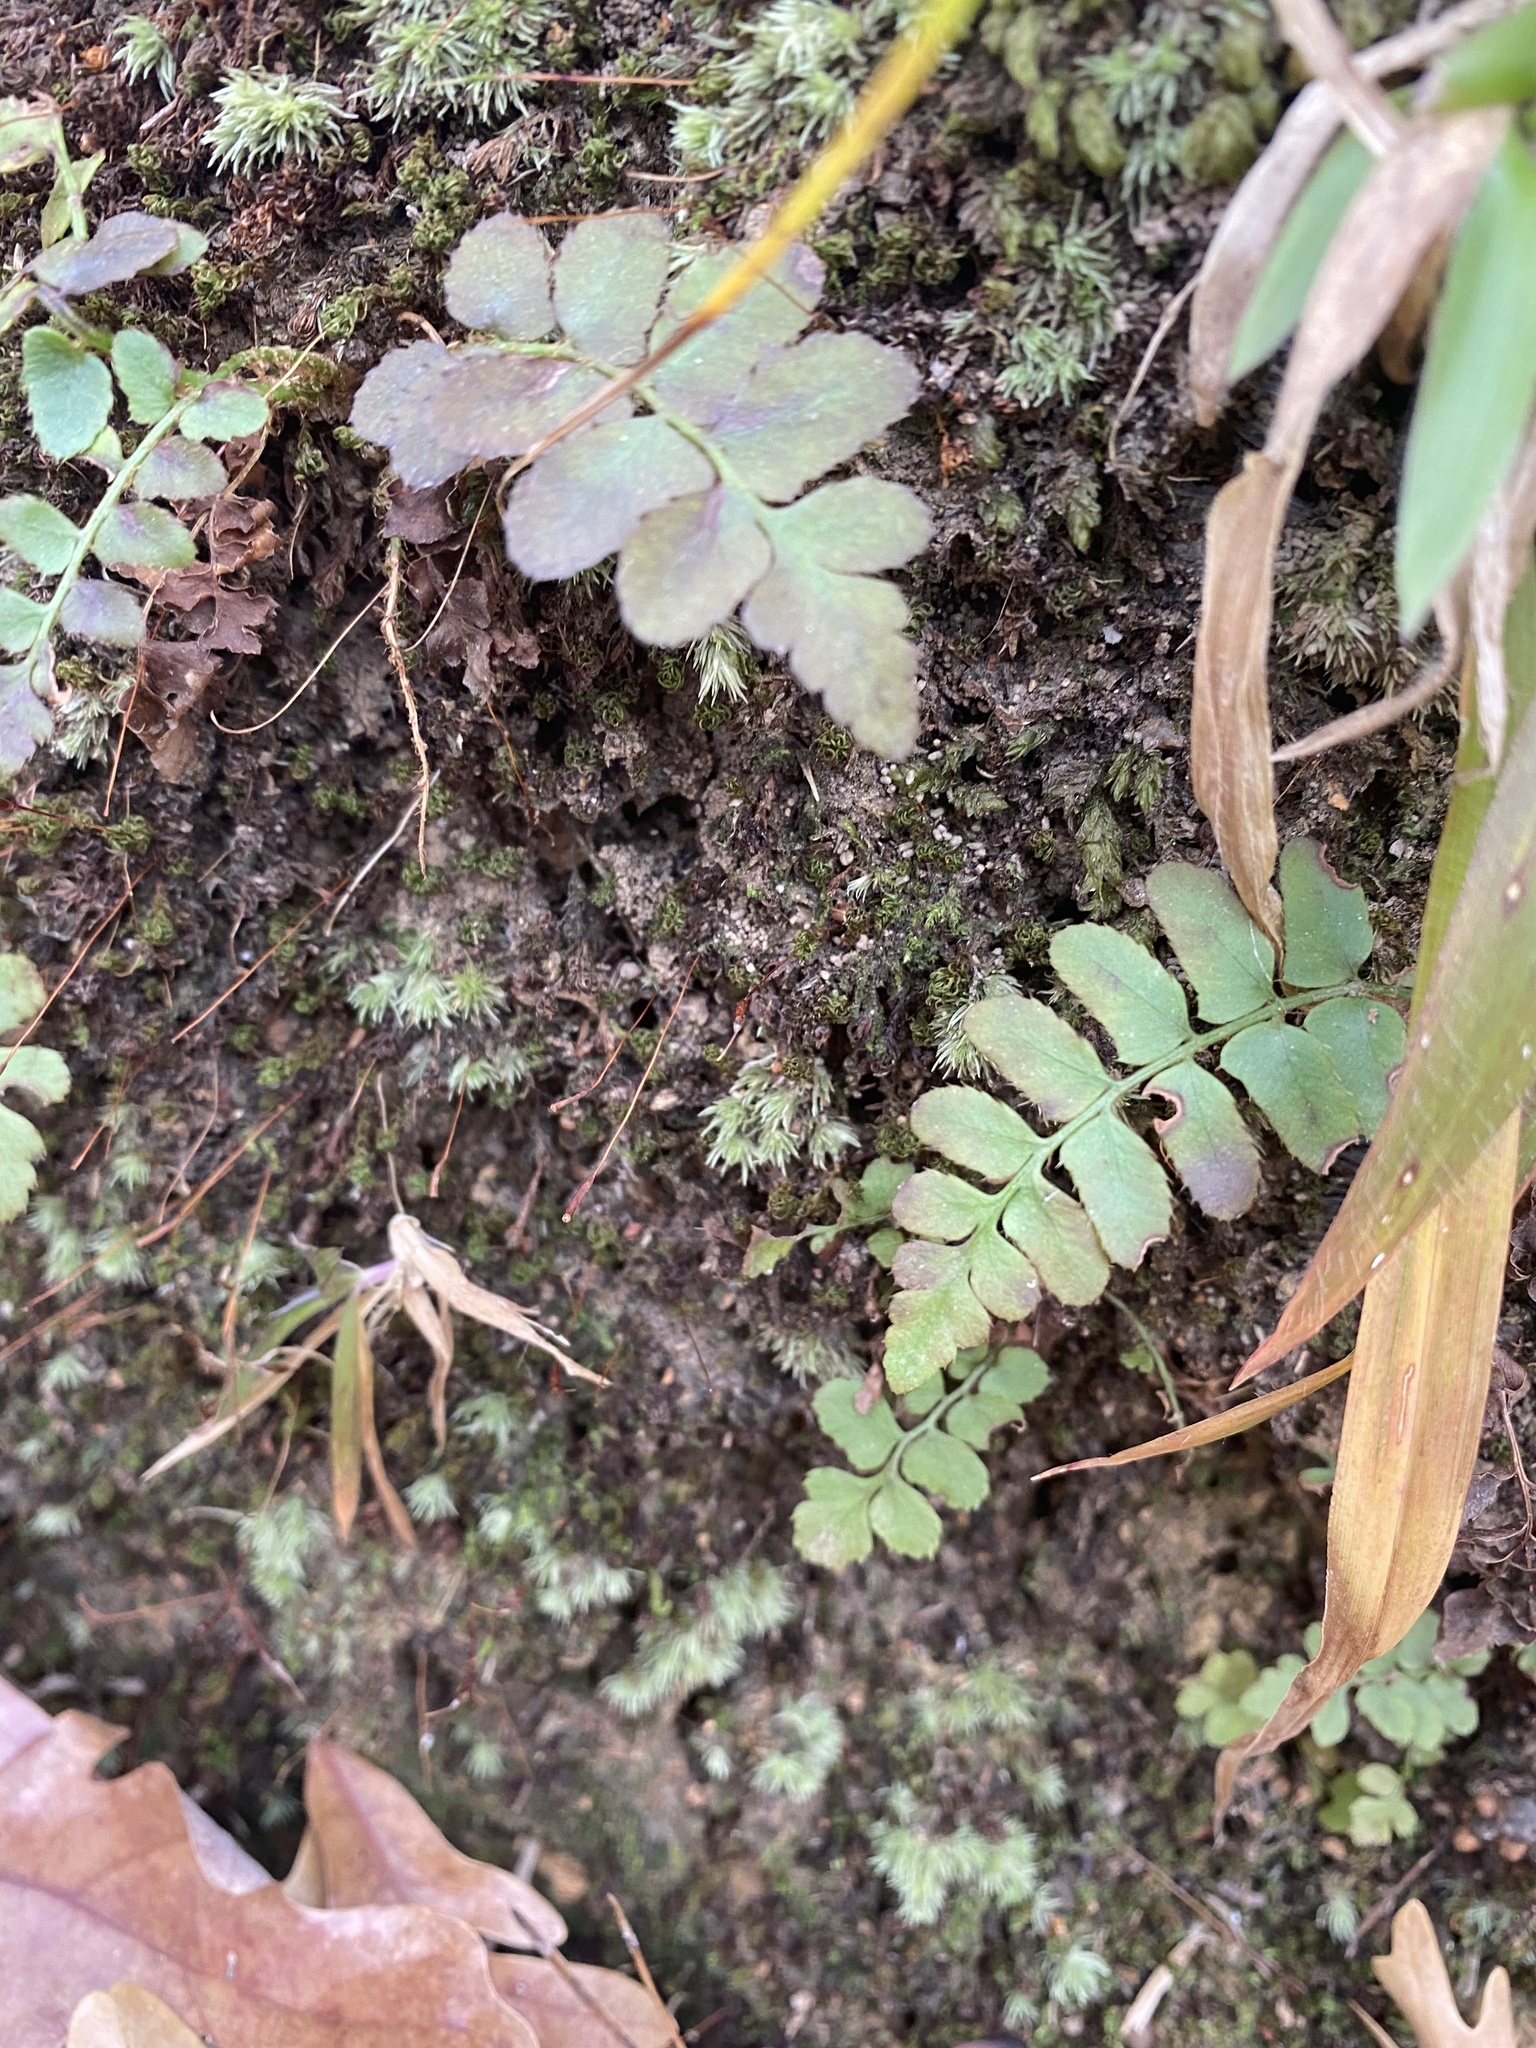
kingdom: Plantae
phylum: Tracheophyta
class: Polypodiopsida
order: Polypodiales
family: Dryopteridaceae
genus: Polystichum
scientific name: Polystichum acrostichoides
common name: Christmas fern
